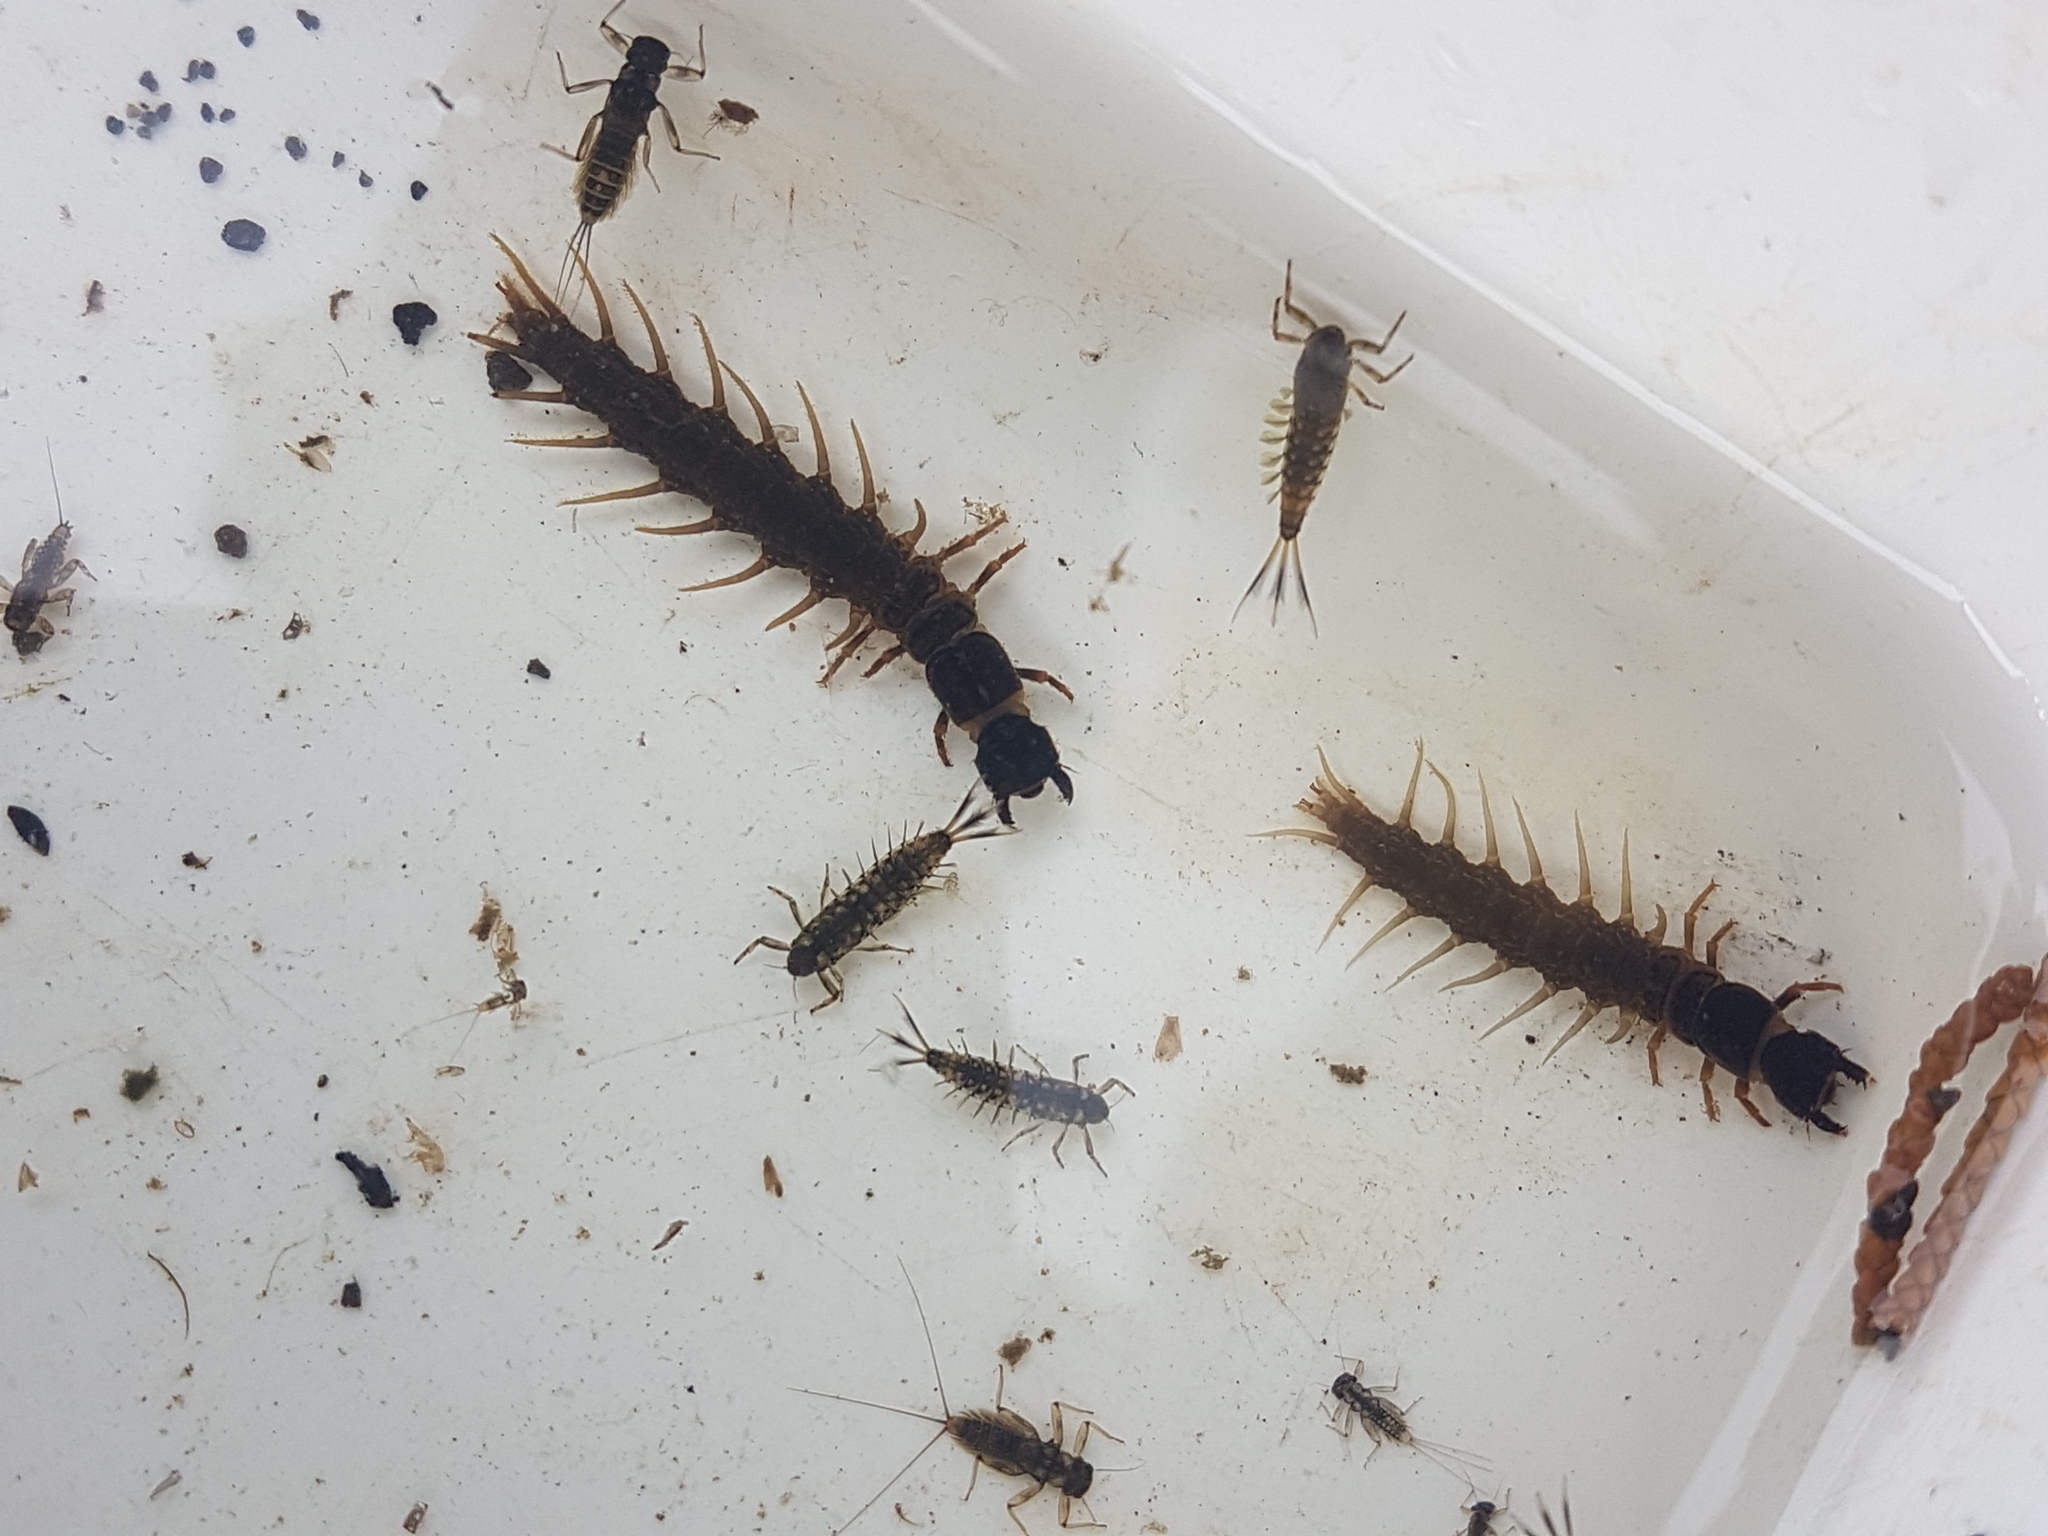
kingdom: Animalia
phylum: Arthropoda
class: Insecta
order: Megaloptera
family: Corydalidae
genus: Archichauliodes
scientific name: Archichauliodes diversus
